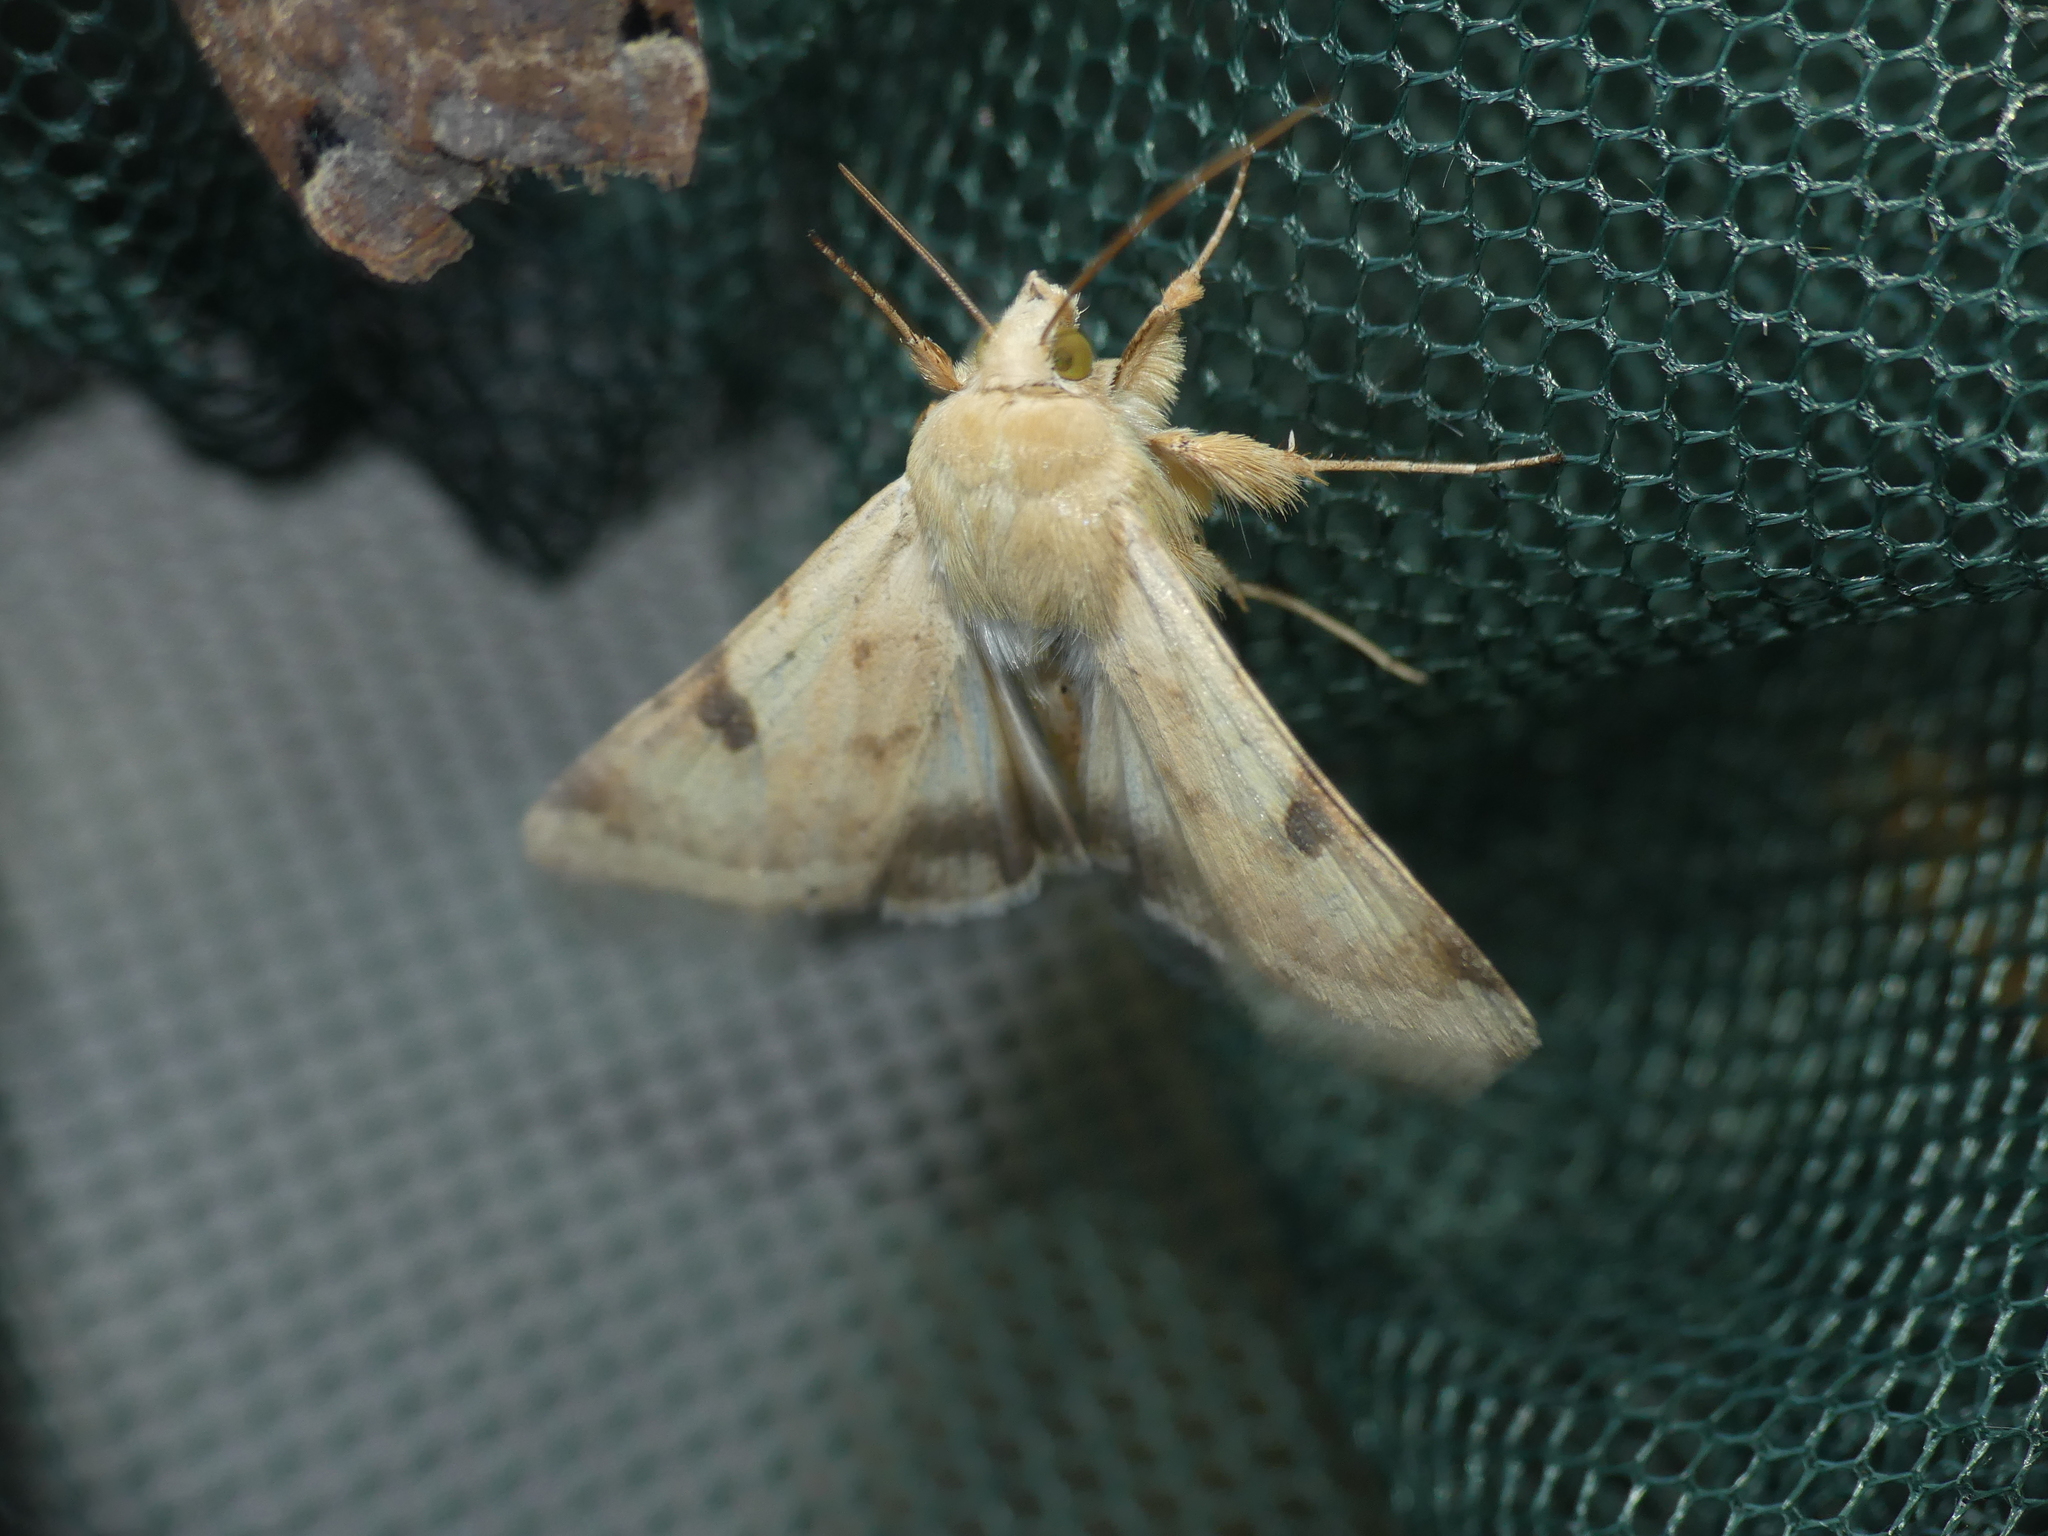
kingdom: Animalia
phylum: Arthropoda
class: Insecta
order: Lepidoptera
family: Noctuidae
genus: Heliothis
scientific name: Heliothis peltigera
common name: Bordered straw
